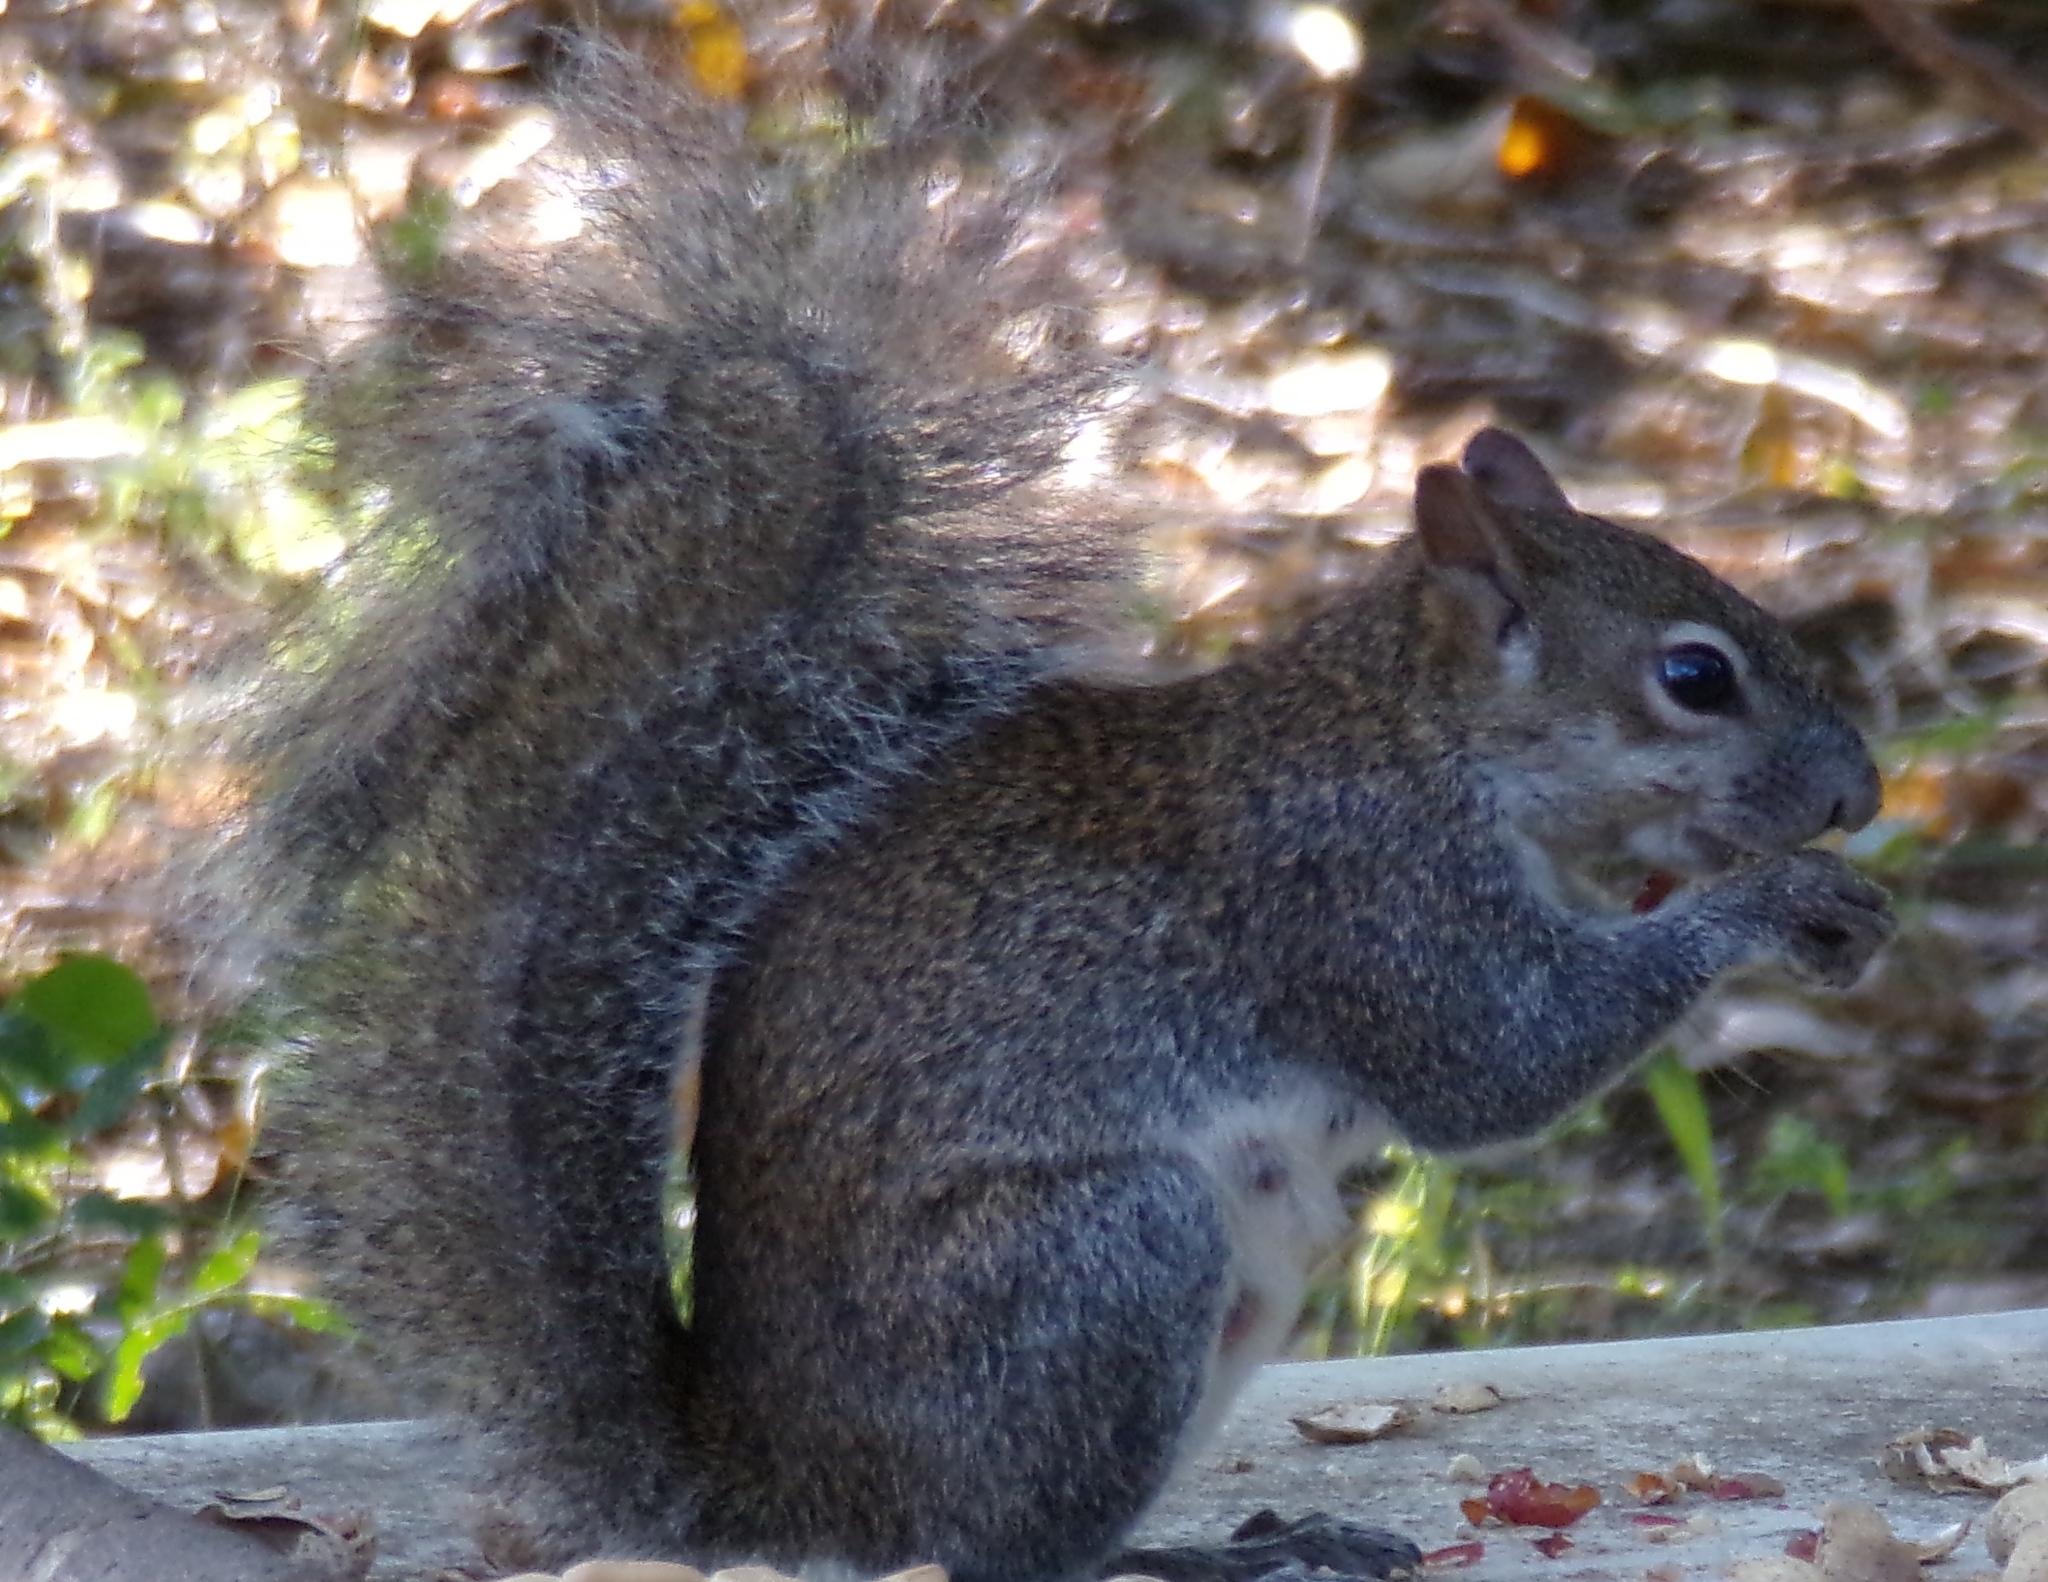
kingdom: Animalia
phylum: Chordata
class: Mammalia
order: Rodentia
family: Sciuridae
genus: Sciurus
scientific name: Sciurus colliaei
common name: Collie's squirrel
